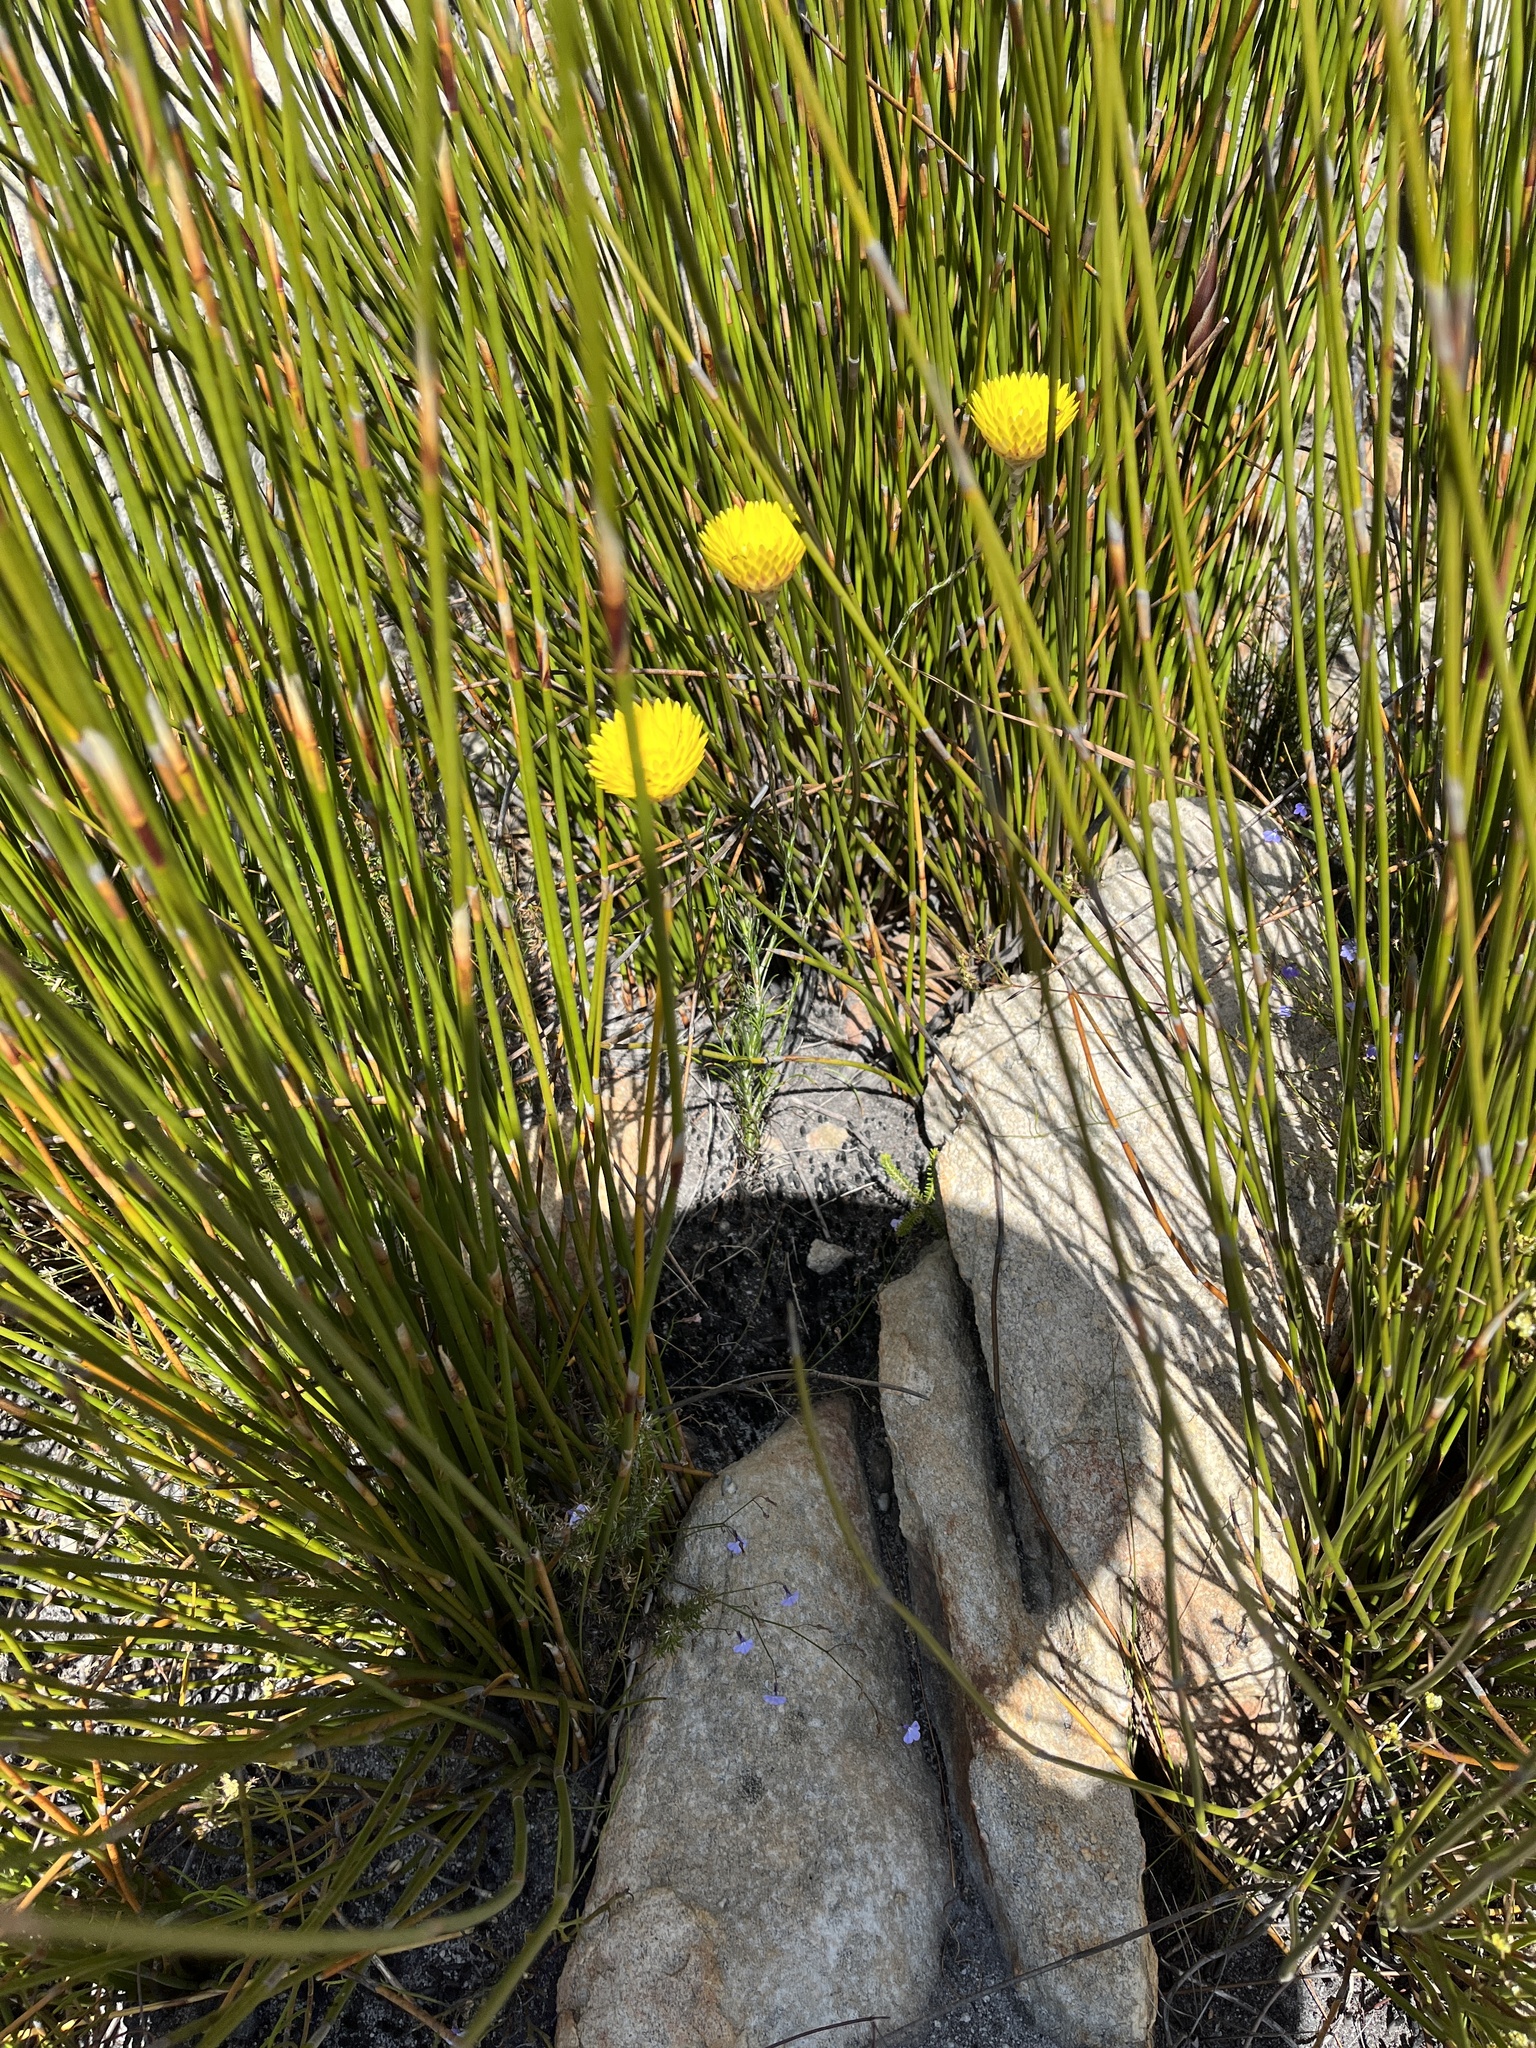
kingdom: Plantae
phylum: Tracheophyta
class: Magnoliopsida
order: Asterales
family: Asteraceae
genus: Edmondia
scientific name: Edmondia sesamoides
